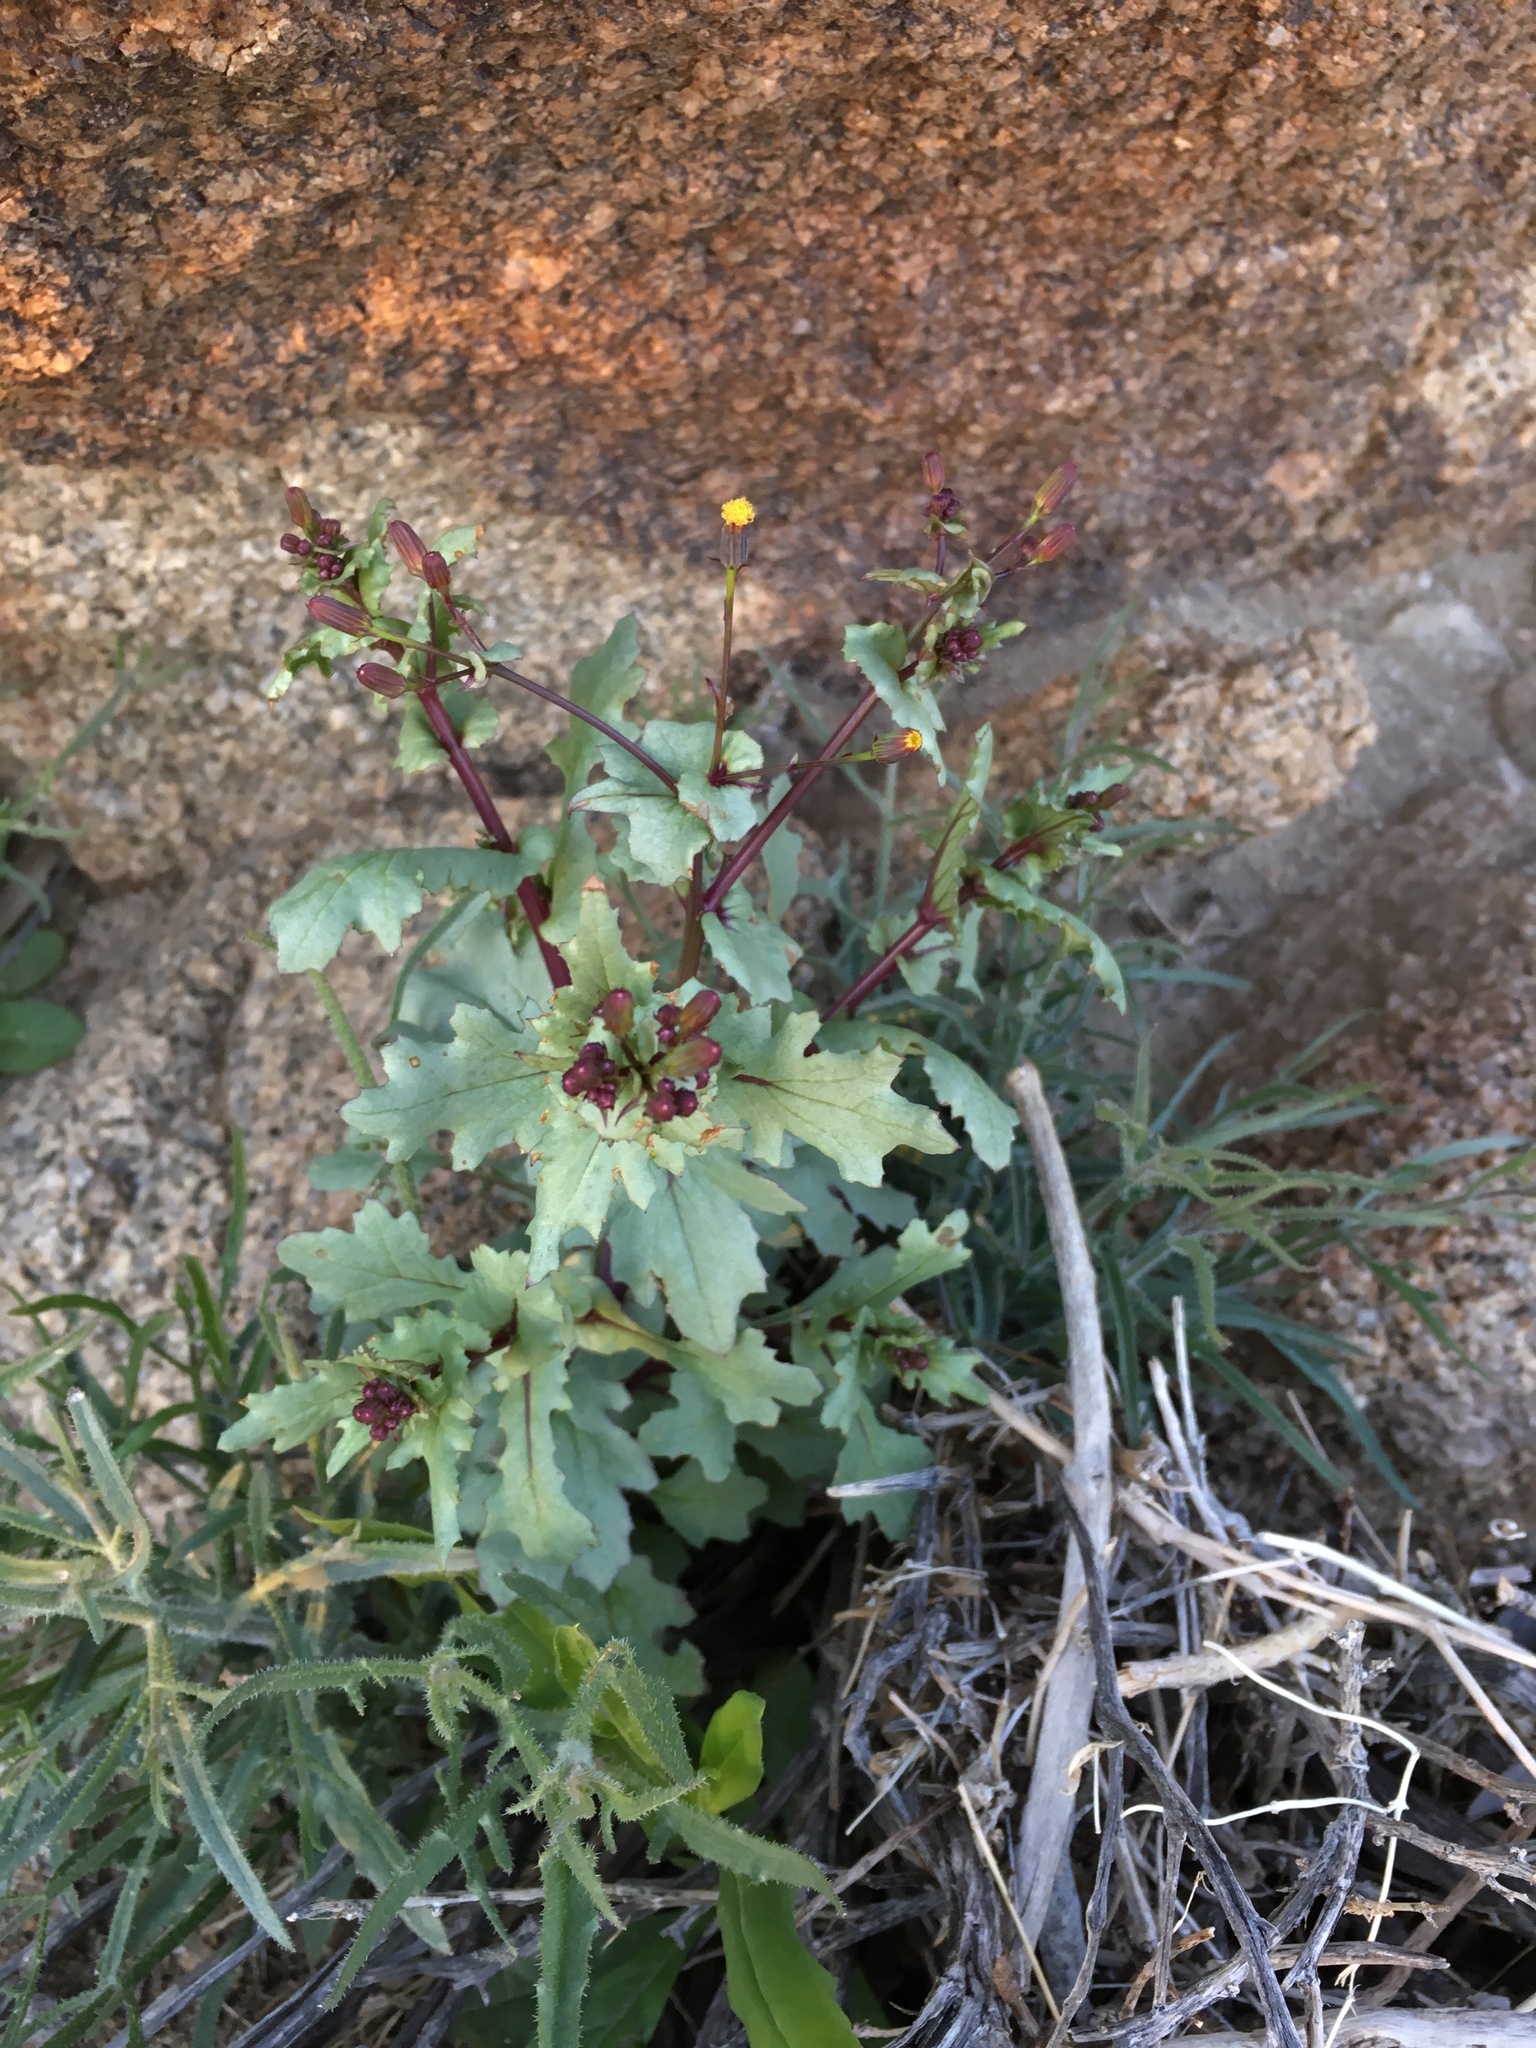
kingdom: Plantae
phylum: Tracheophyta
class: Magnoliopsida
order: Asterales
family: Asteraceae
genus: Senecio
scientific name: Senecio mohavensis
